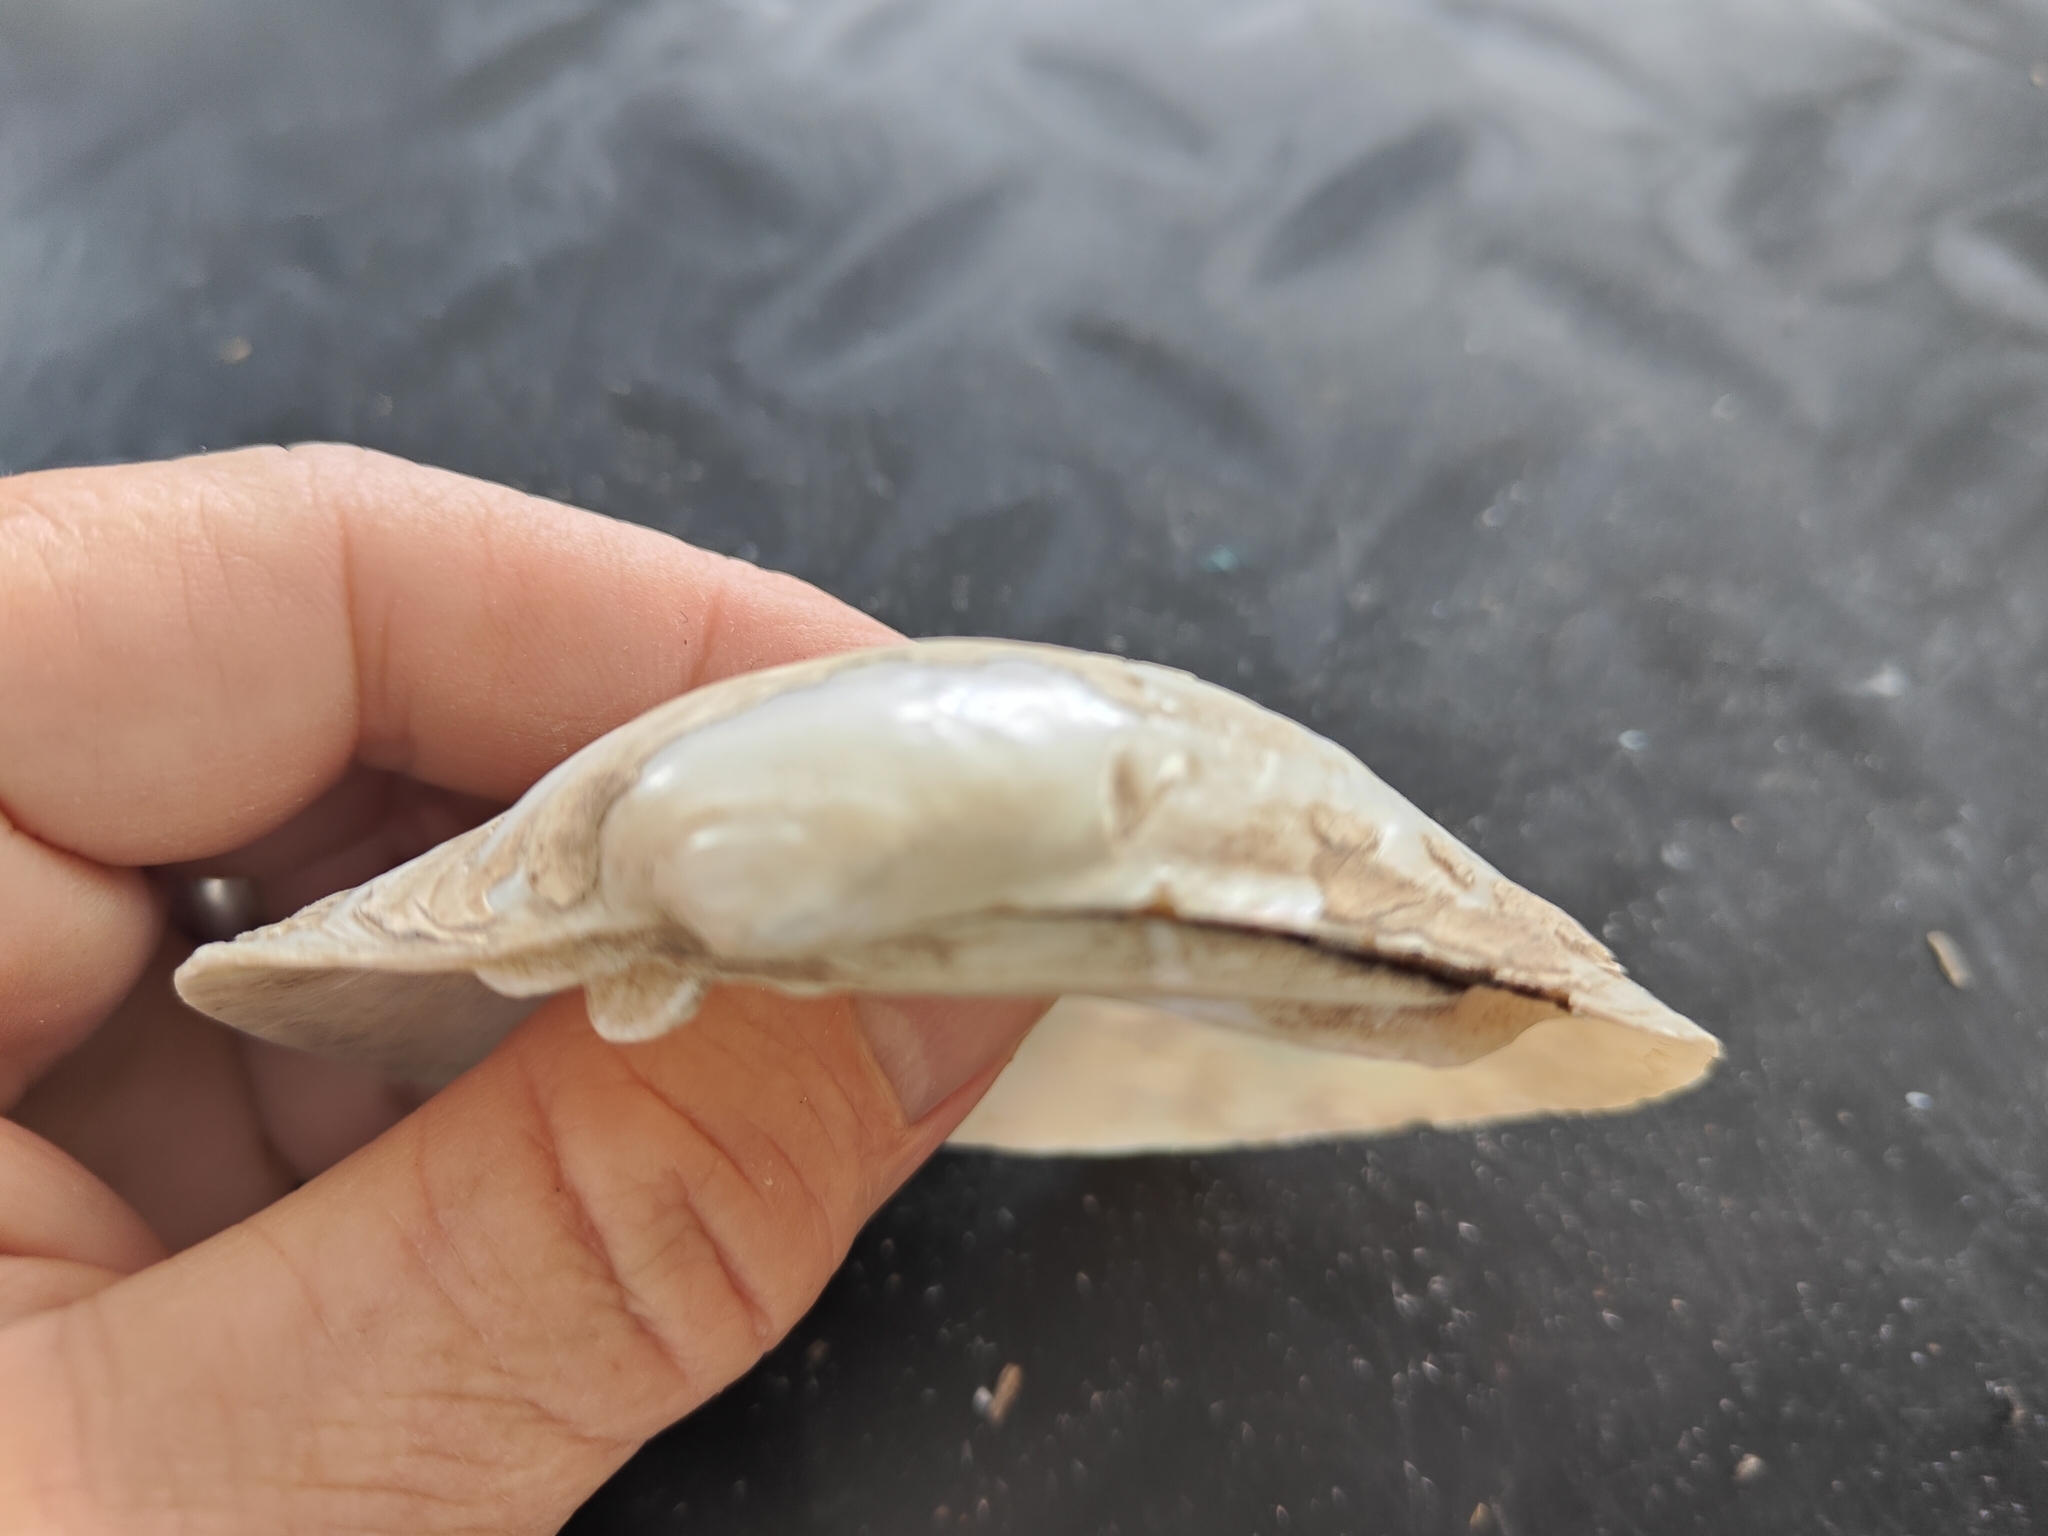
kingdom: Animalia
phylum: Mollusca
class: Bivalvia
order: Unionida
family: Unionidae
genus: Lampsilis
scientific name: Lampsilis cardium
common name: Plain pocketbook
